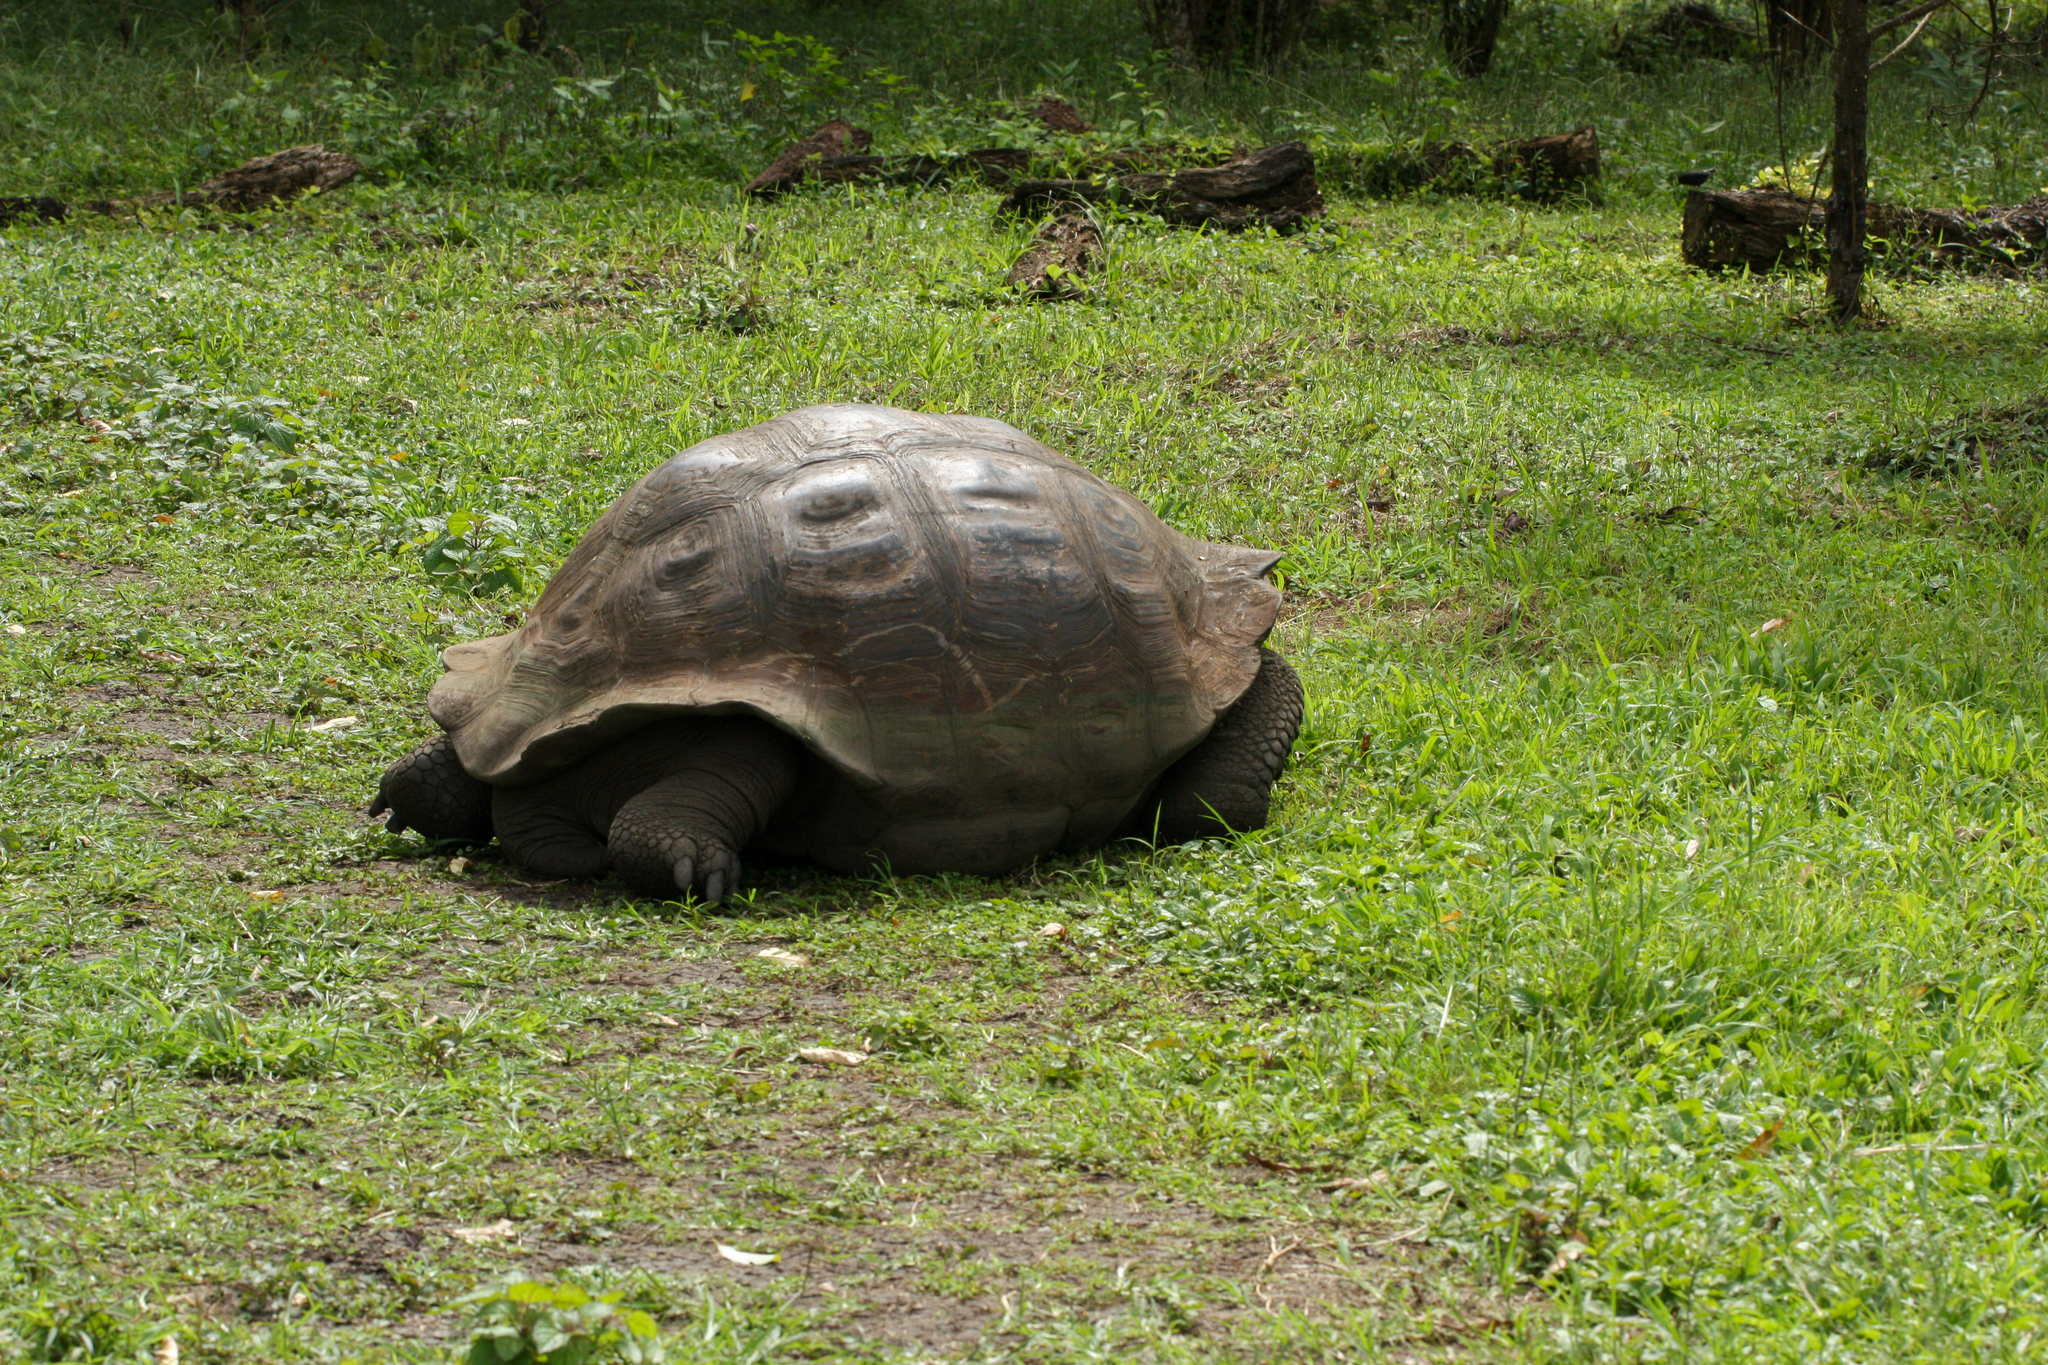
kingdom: Animalia
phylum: Chordata
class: Testudines
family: Testudinidae
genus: Chelonoidis
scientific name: Chelonoidis porteri
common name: Indefatigable island giant tortoise
